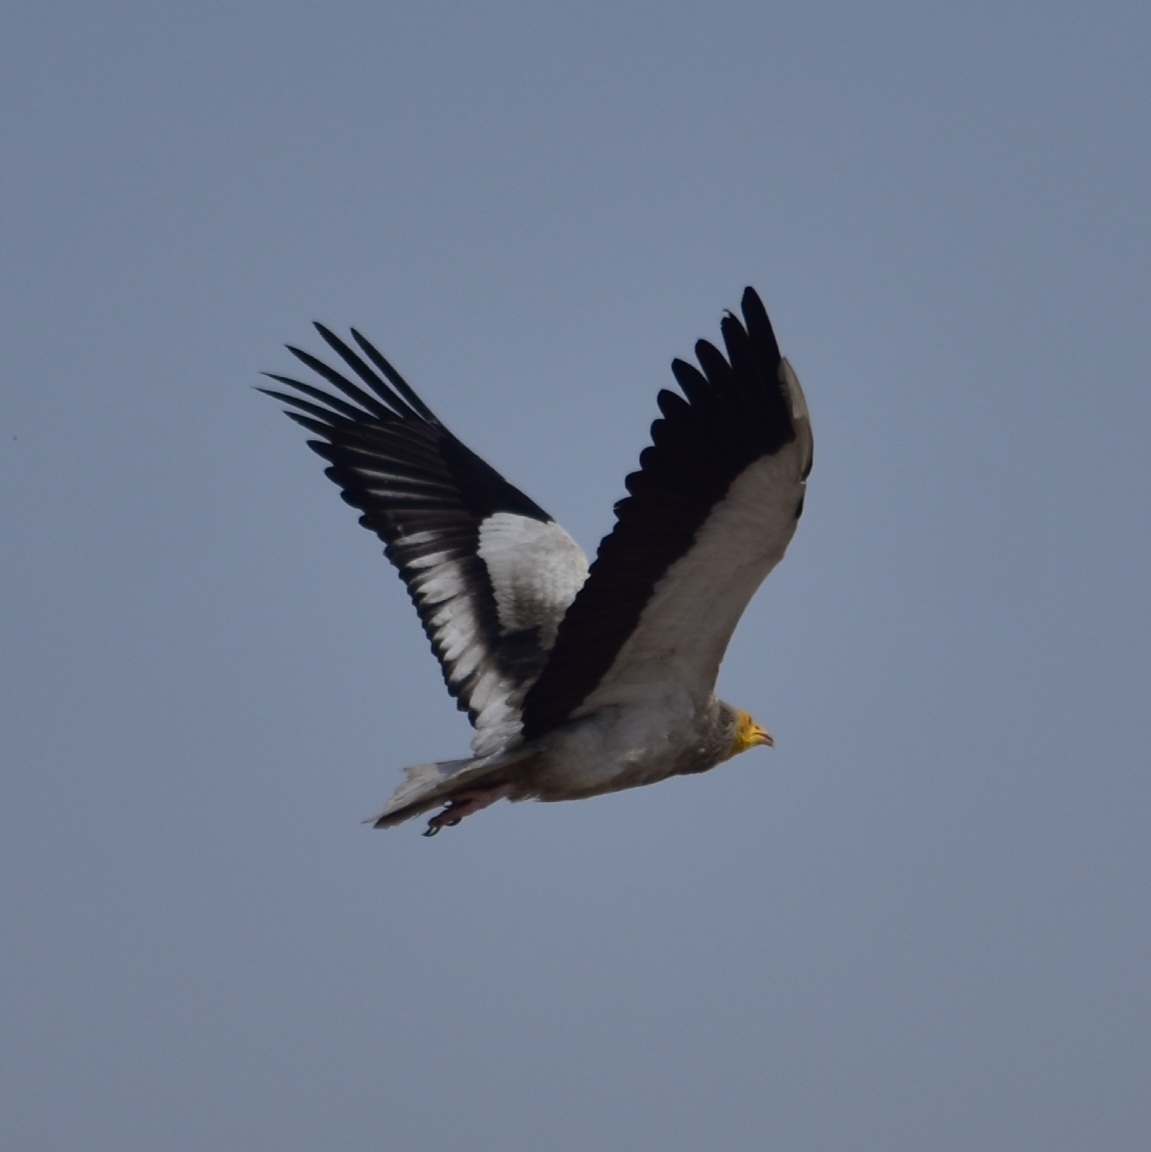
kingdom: Animalia
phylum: Chordata
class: Aves
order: Accipitriformes
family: Accipitridae
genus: Neophron
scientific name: Neophron percnopterus
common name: Egyptian vulture
